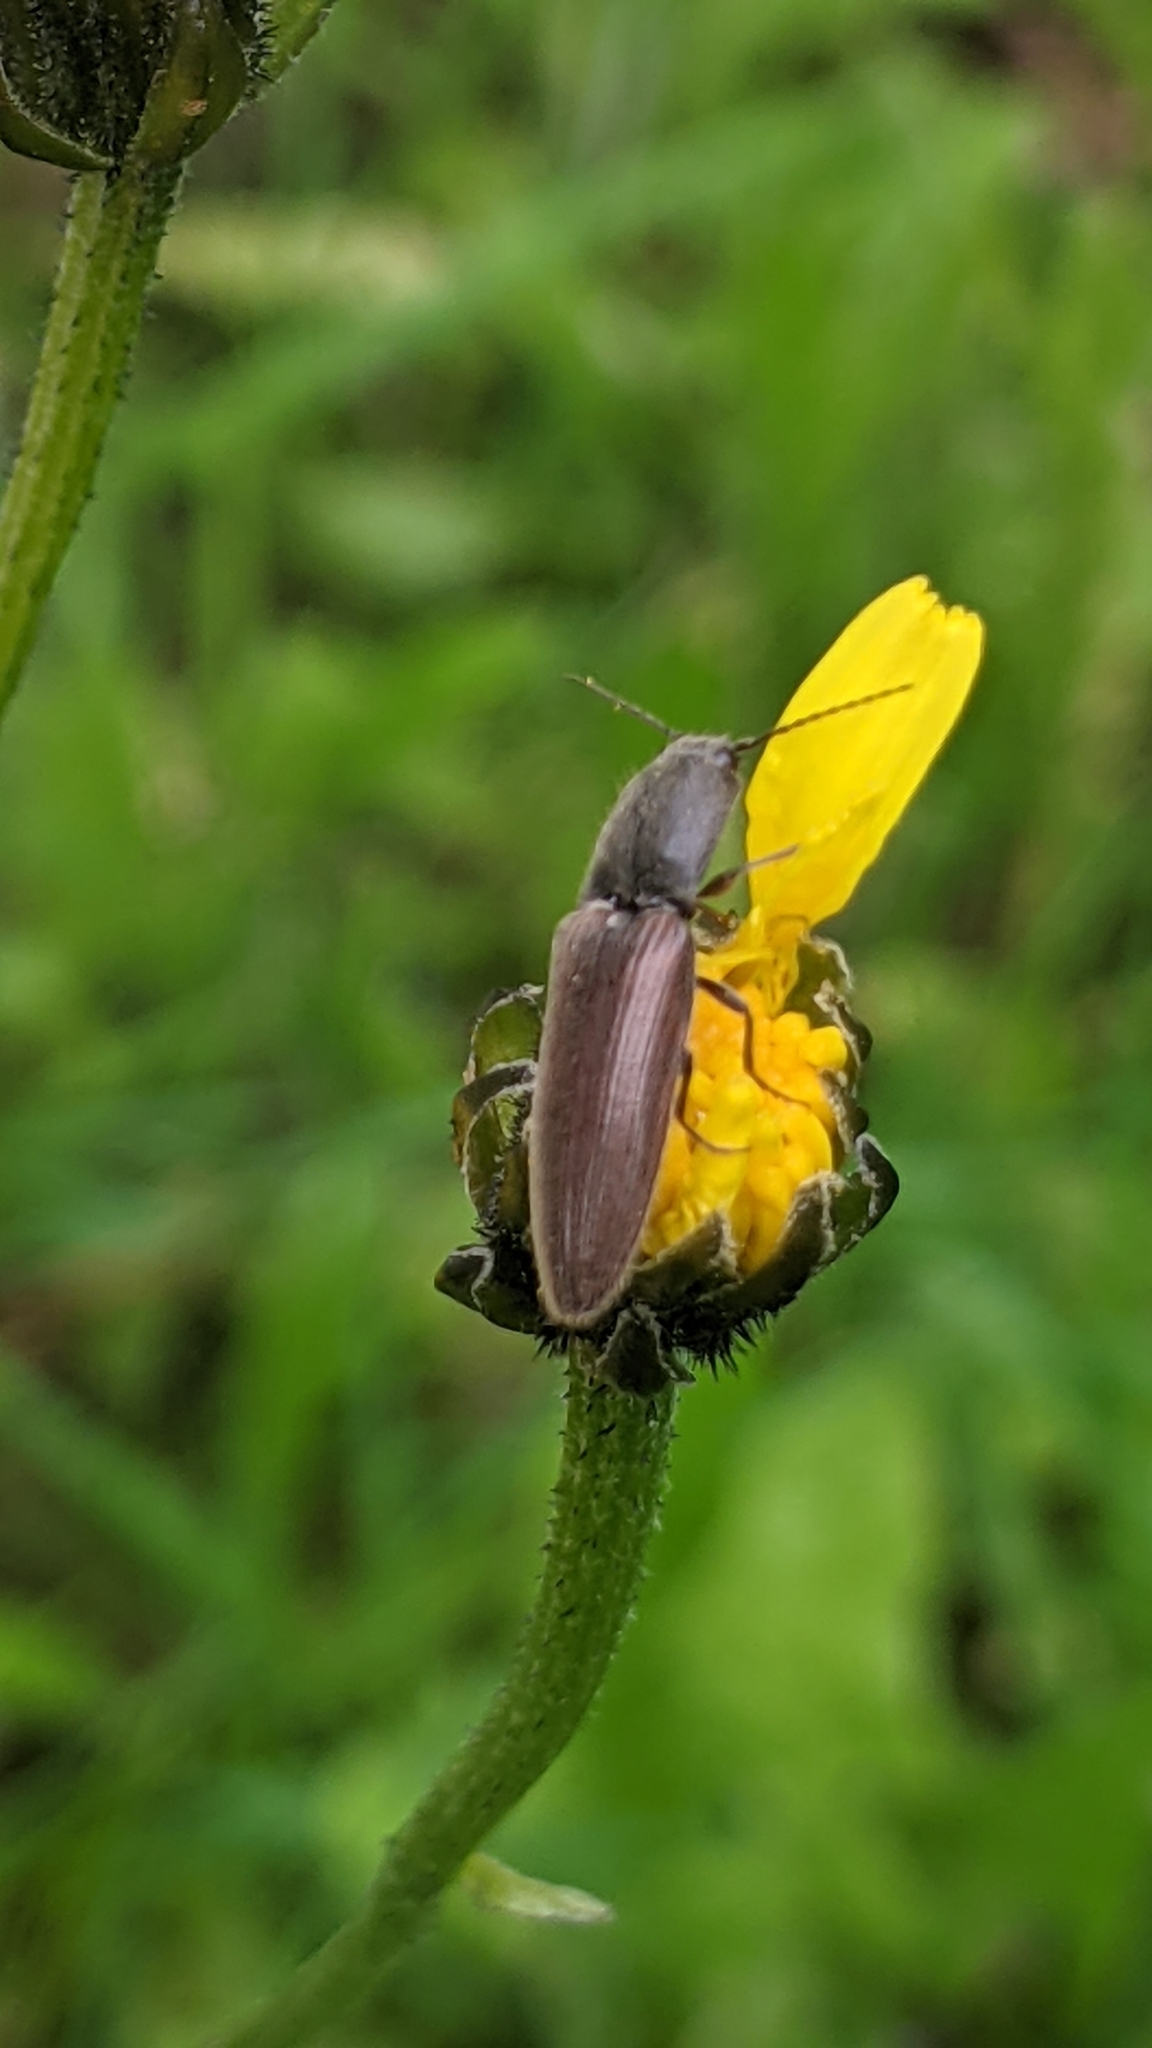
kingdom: Animalia
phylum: Arthropoda
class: Insecta
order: Coleoptera
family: Elateridae
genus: Athous
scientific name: Athous haemorrhoidalis
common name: Red-brown click beetle
